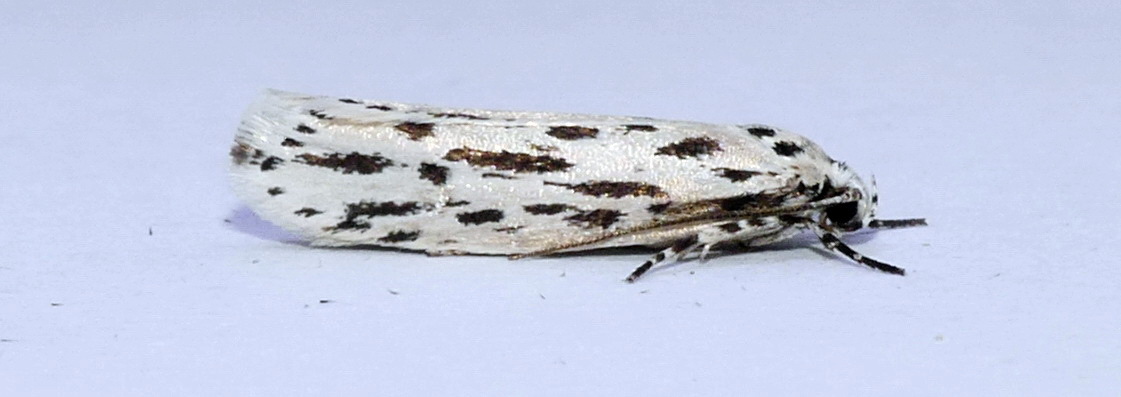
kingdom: Animalia
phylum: Arthropoda
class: Insecta
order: Lepidoptera
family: Ethmiidae
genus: Ethmia
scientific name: Ethmia longimaculella
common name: Streaked ethmia moth
